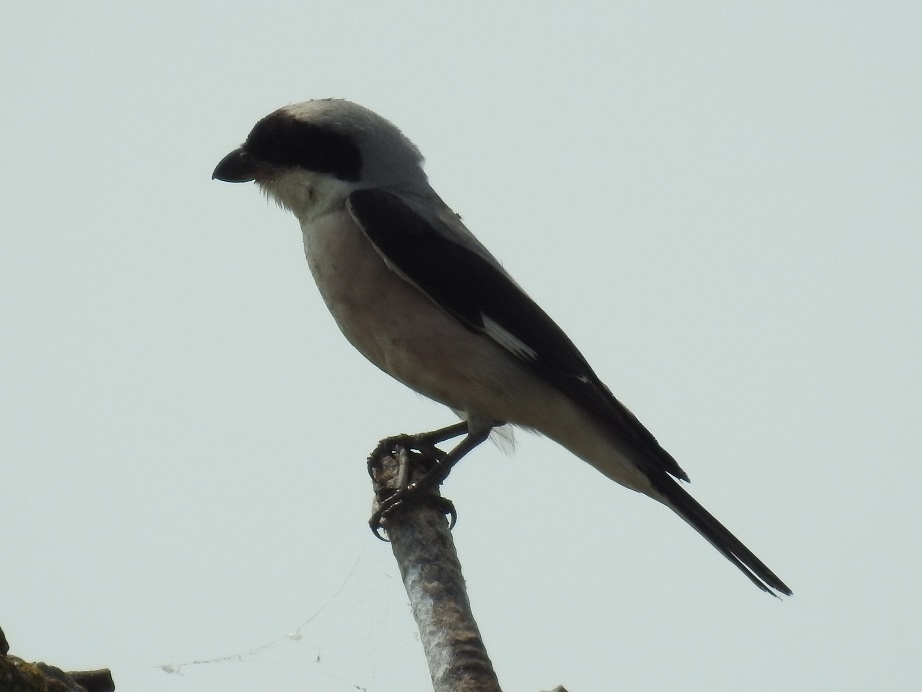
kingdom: Animalia
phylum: Chordata
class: Aves
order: Passeriformes
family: Laniidae
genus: Lanius
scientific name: Lanius minor
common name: Lesser grey shrike
